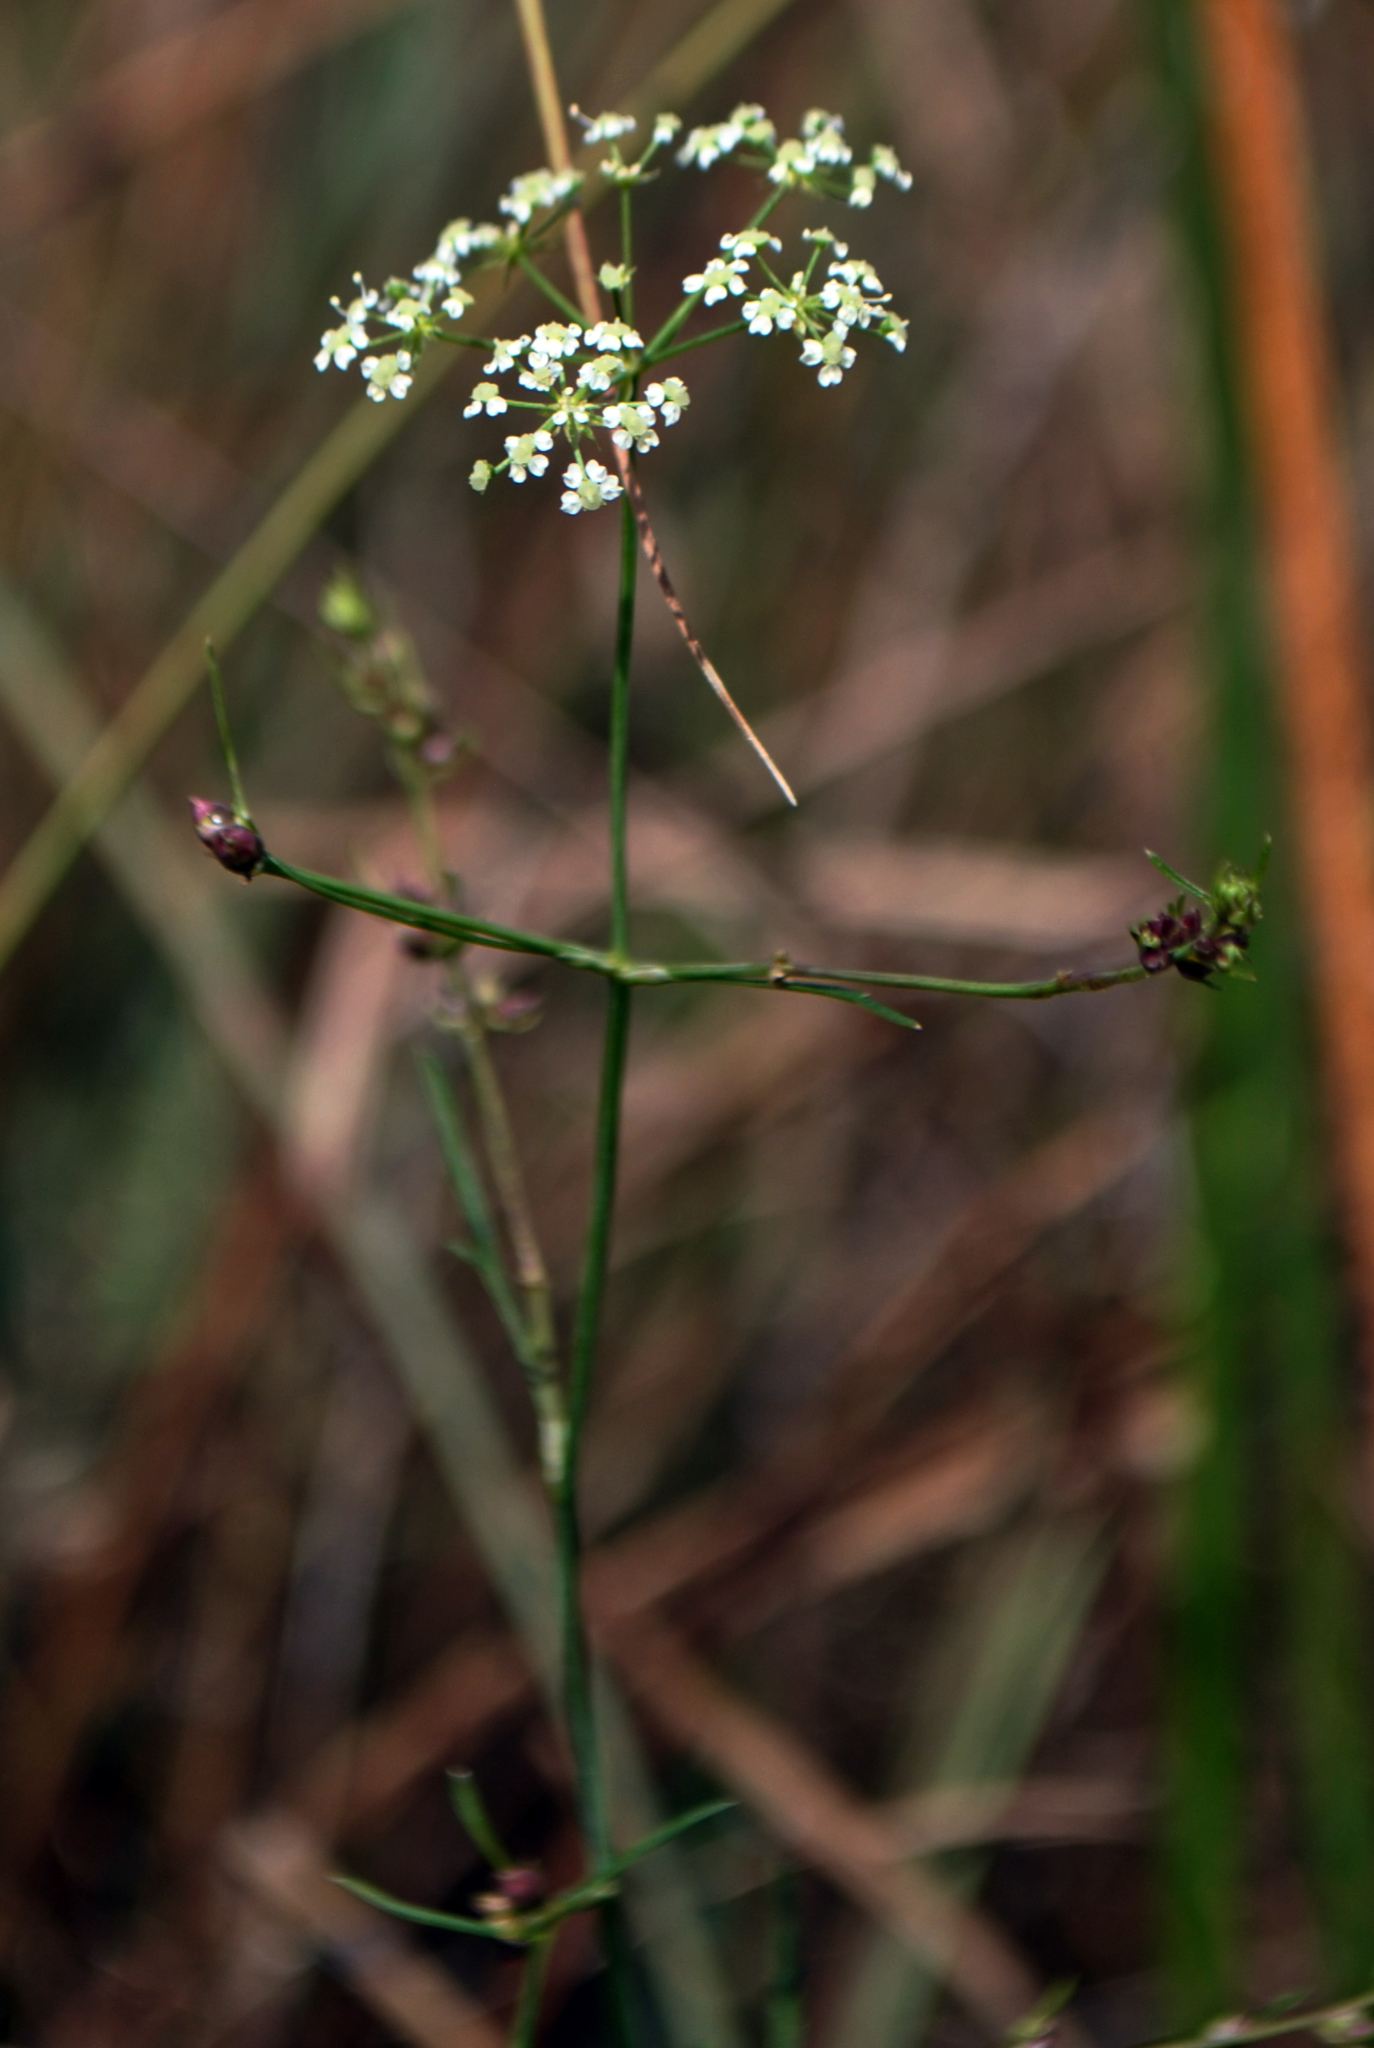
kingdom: Plantae
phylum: Tracheophyta
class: Magnoliopsida
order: Apiales
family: Apiaceae
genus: Cicuta
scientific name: Cicuta bulbifera
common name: Bulb-bearing water-hemlock
